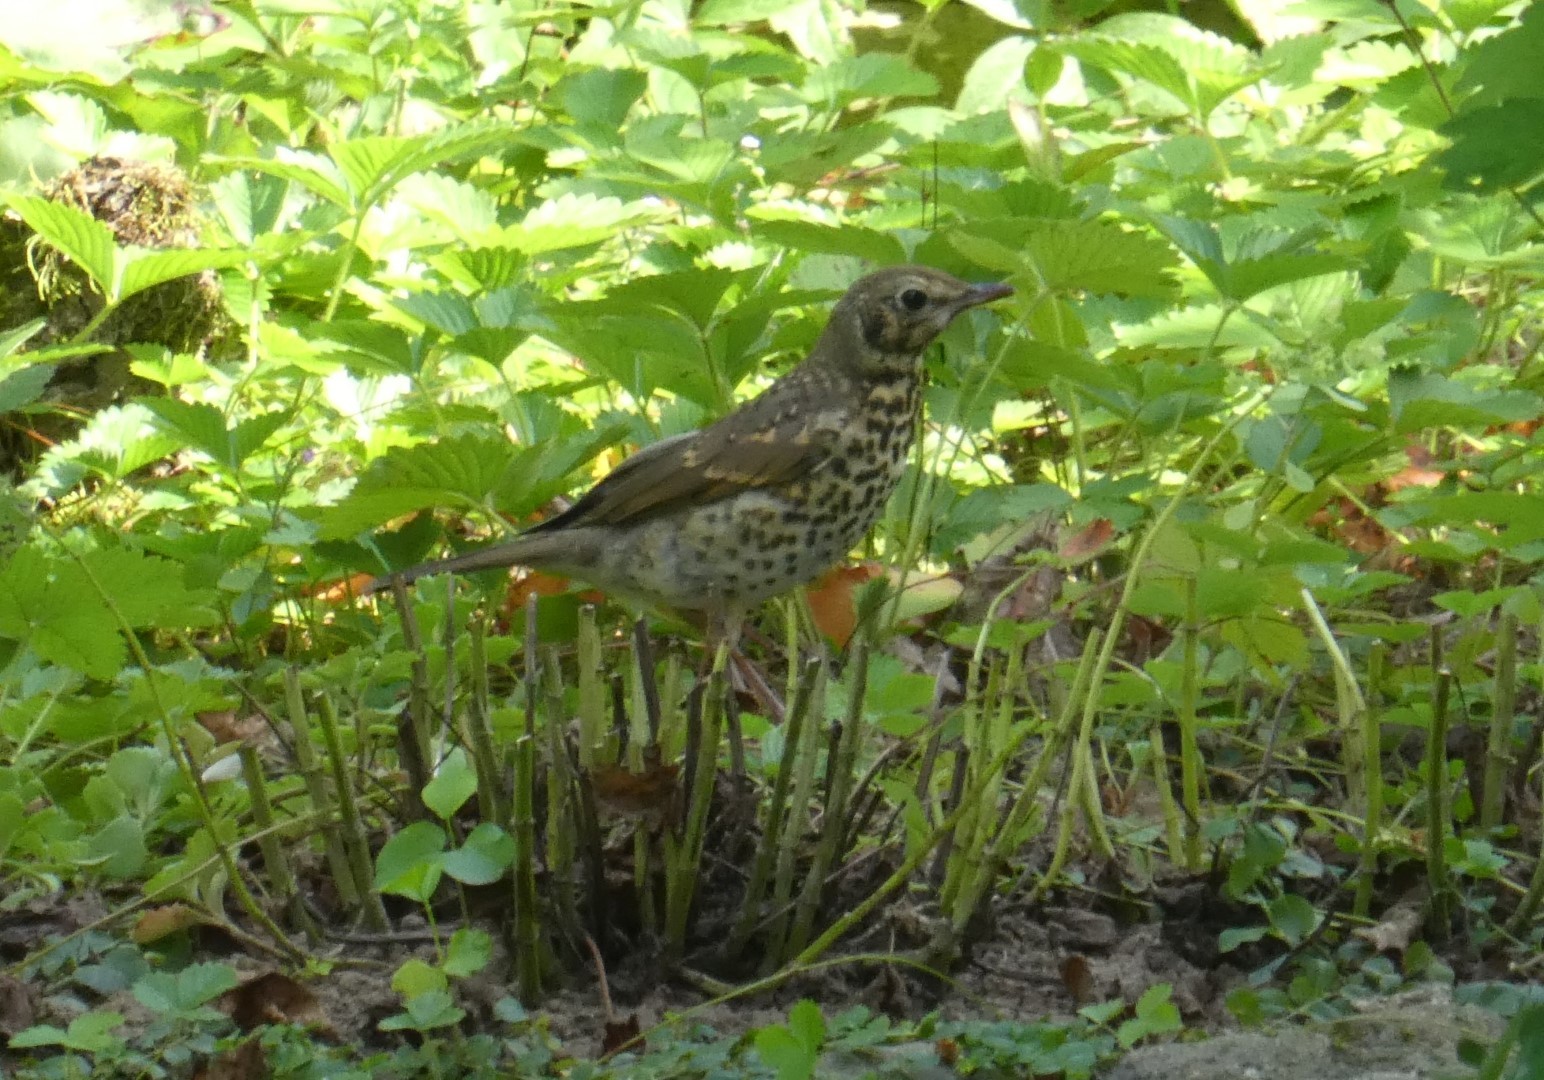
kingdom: Animalia
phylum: Chordata
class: Aves
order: Passeriformes
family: Turdidae
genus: Turdus
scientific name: Turdus viscivorus
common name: Mistle thrush
